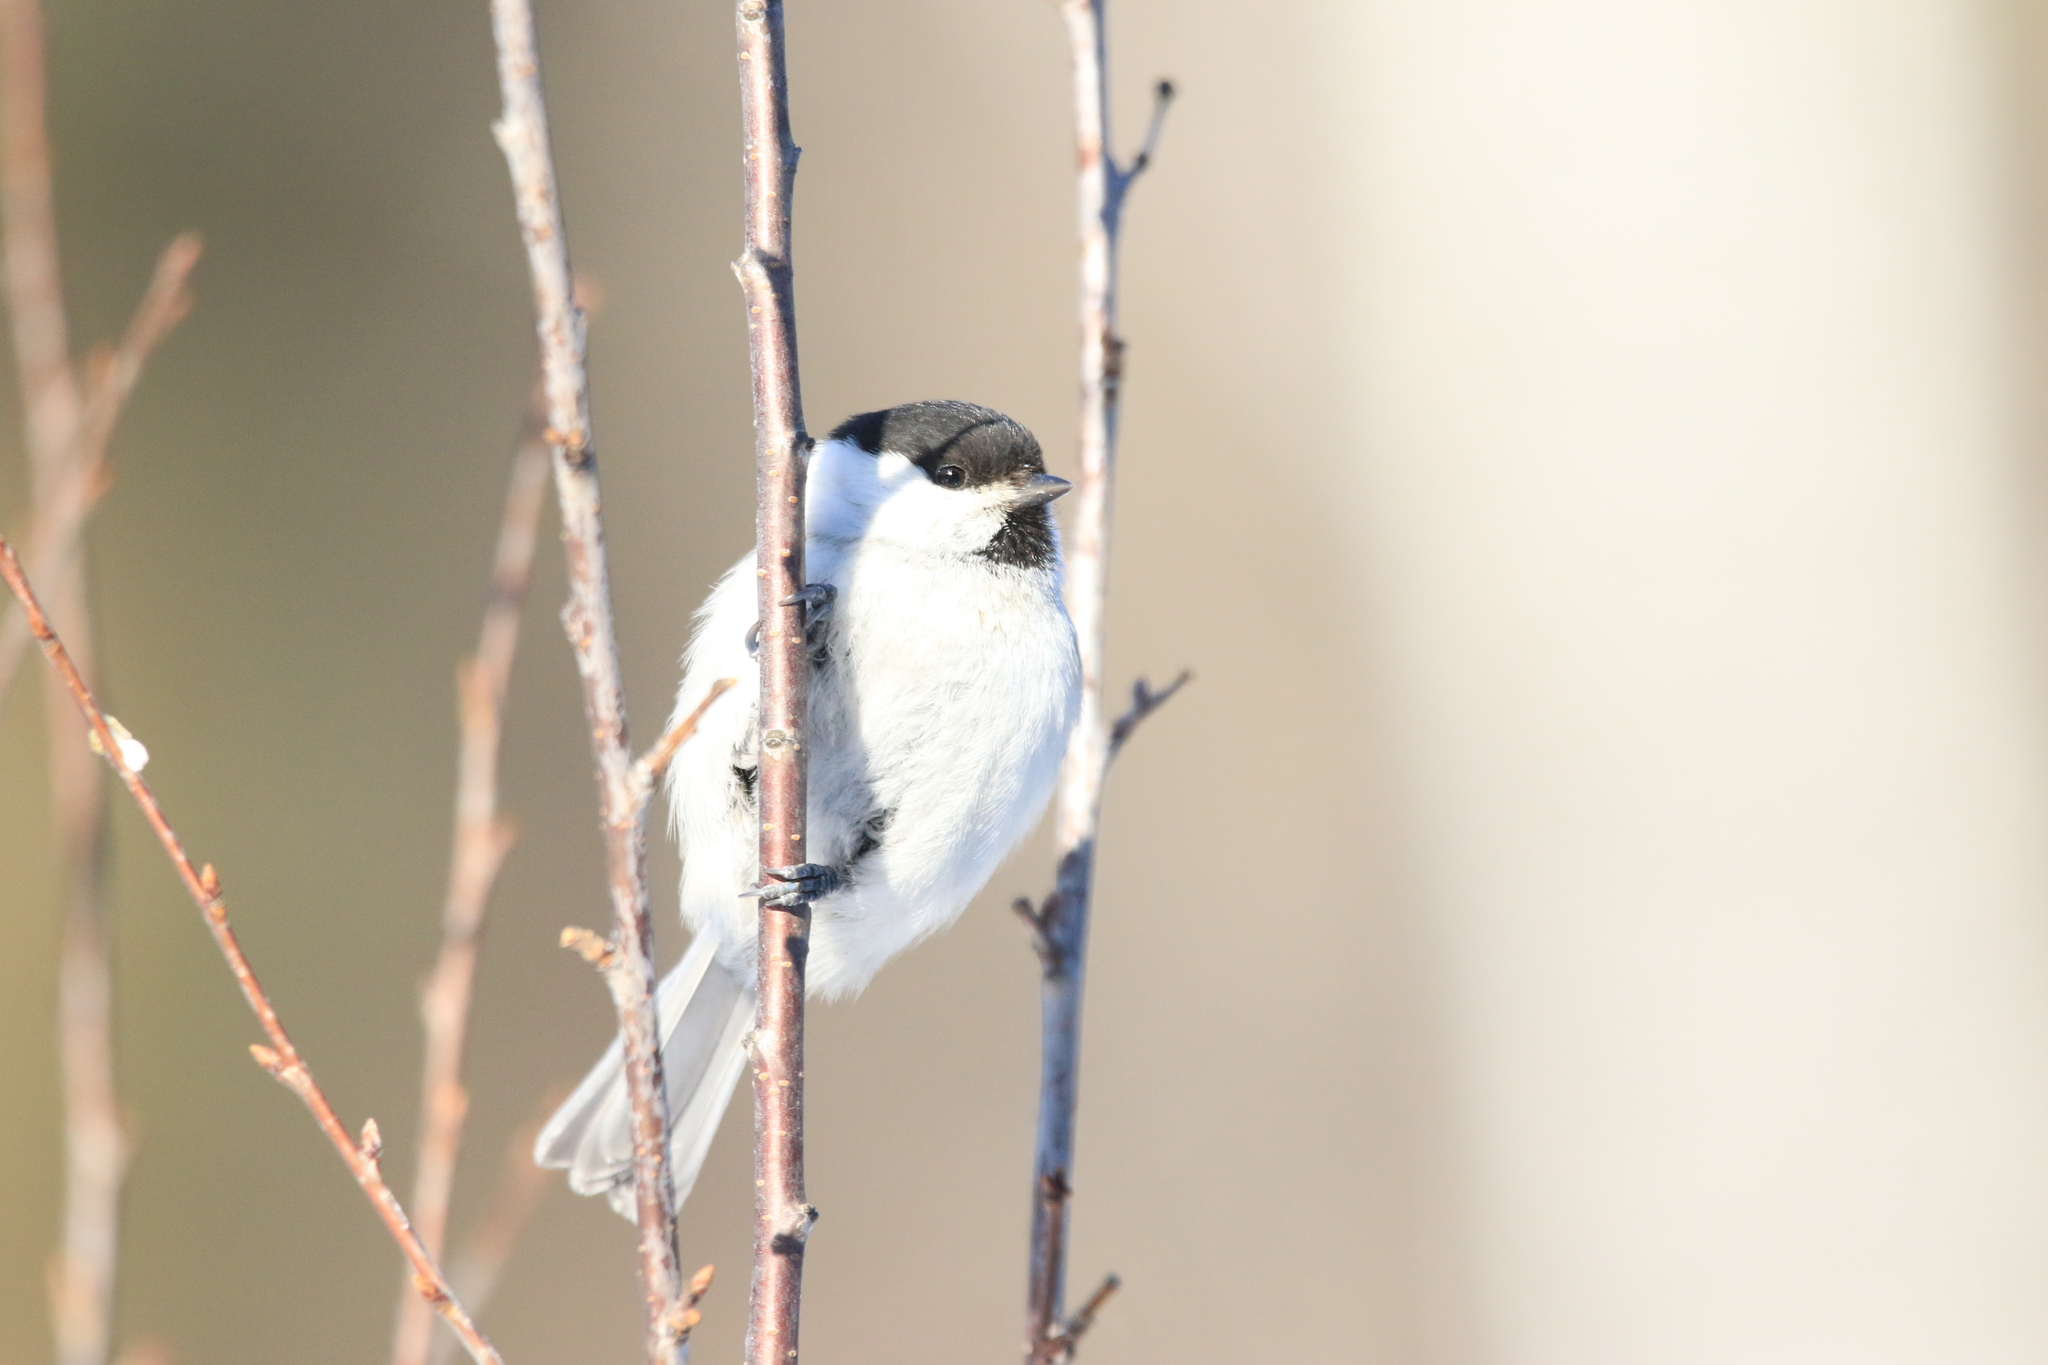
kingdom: Animalia
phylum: Chordata
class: Aves
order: Passeriformes
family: Paridae
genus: Poecile
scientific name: Poecile montanus
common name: Willow tit
